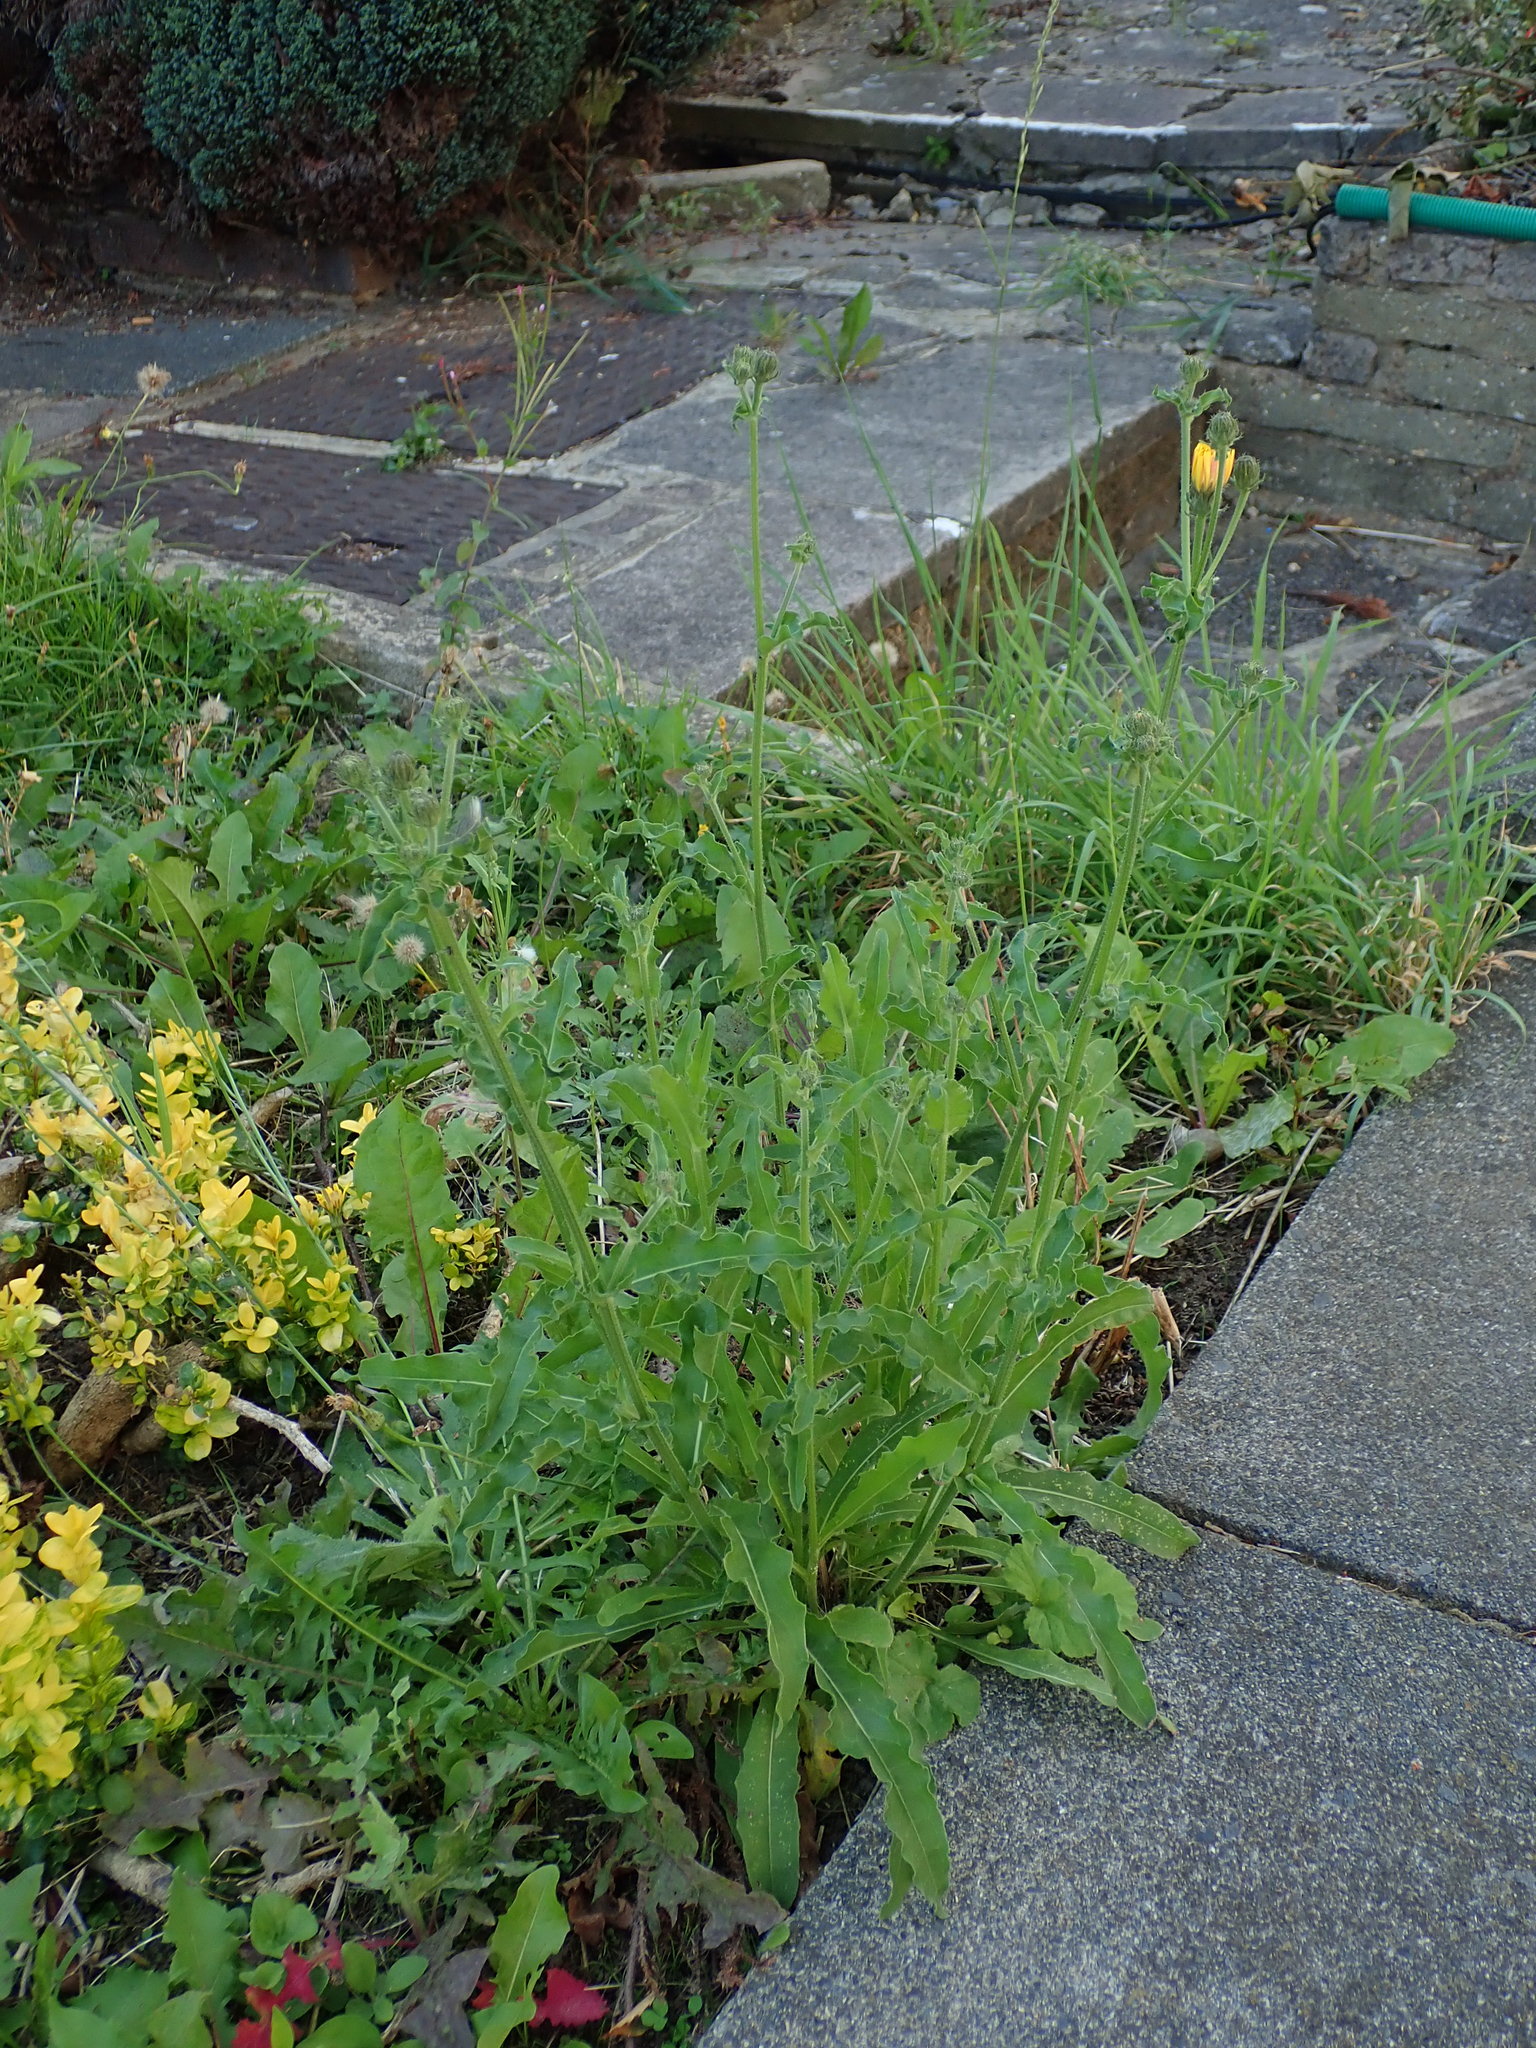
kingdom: Plantae
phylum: Tracheophyta
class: Magnoliopsida
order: Asterales
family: Asteraceae
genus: Picris
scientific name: Picris hieracioides
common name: Hawkweed oxtongue
